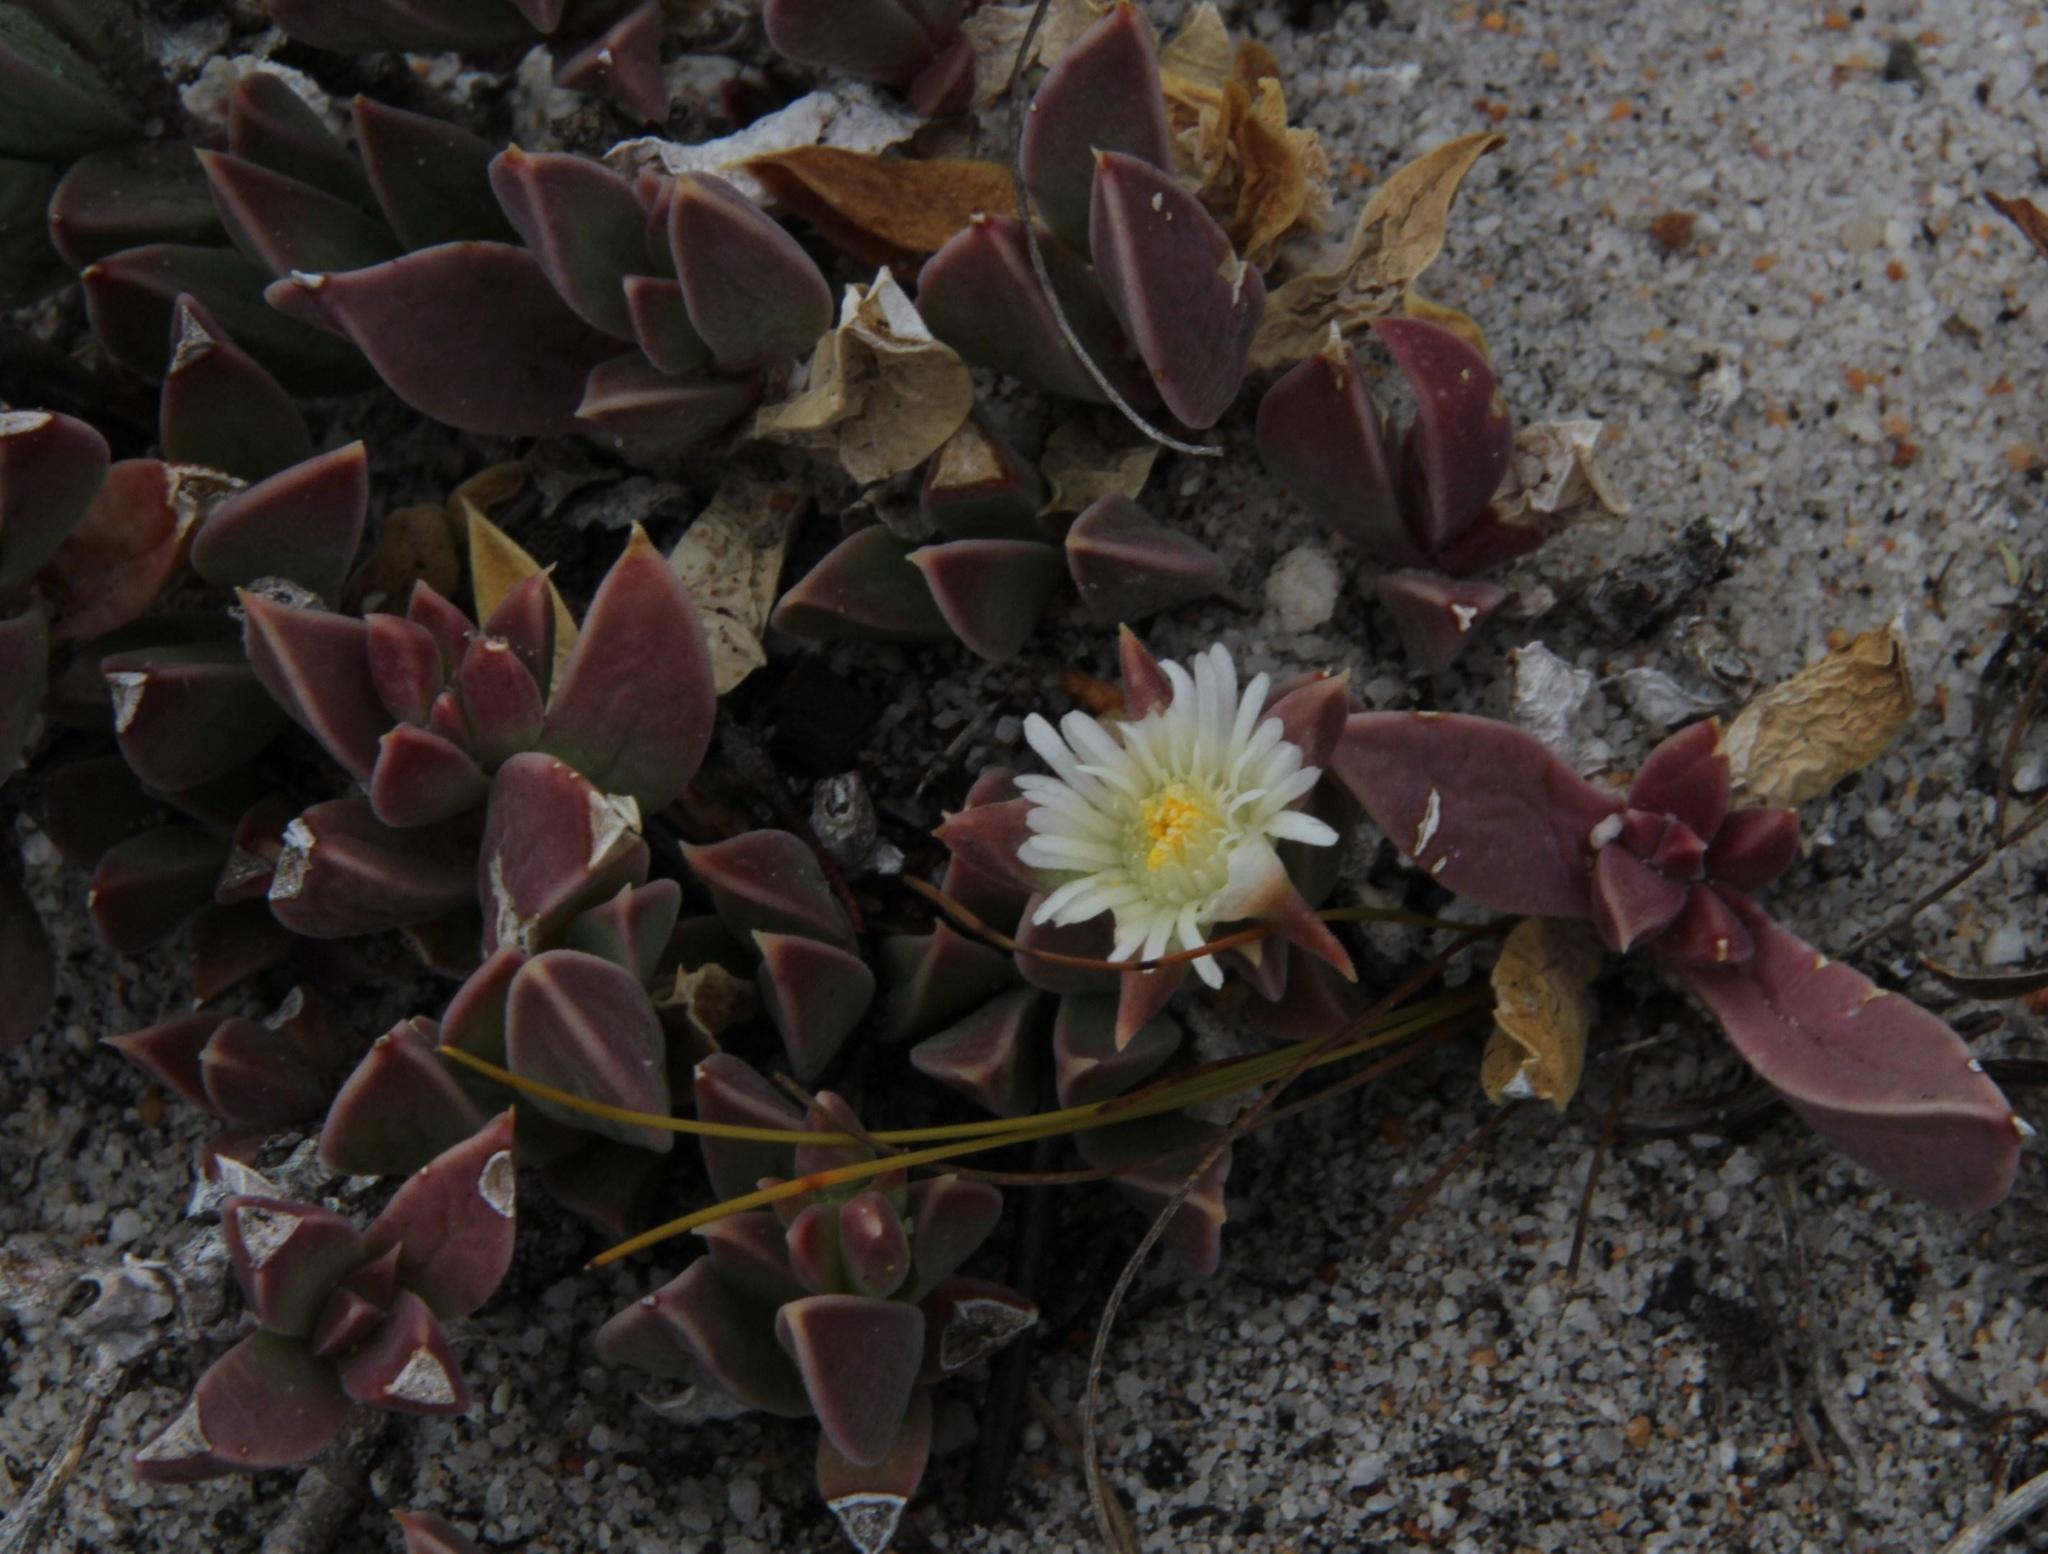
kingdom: Plantae
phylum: Tracheophyta
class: Magnoliopsida
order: Caryophyllales
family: Aizoaceae
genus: Delosperma
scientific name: Delosperma litorale
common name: Seaside delosperma
